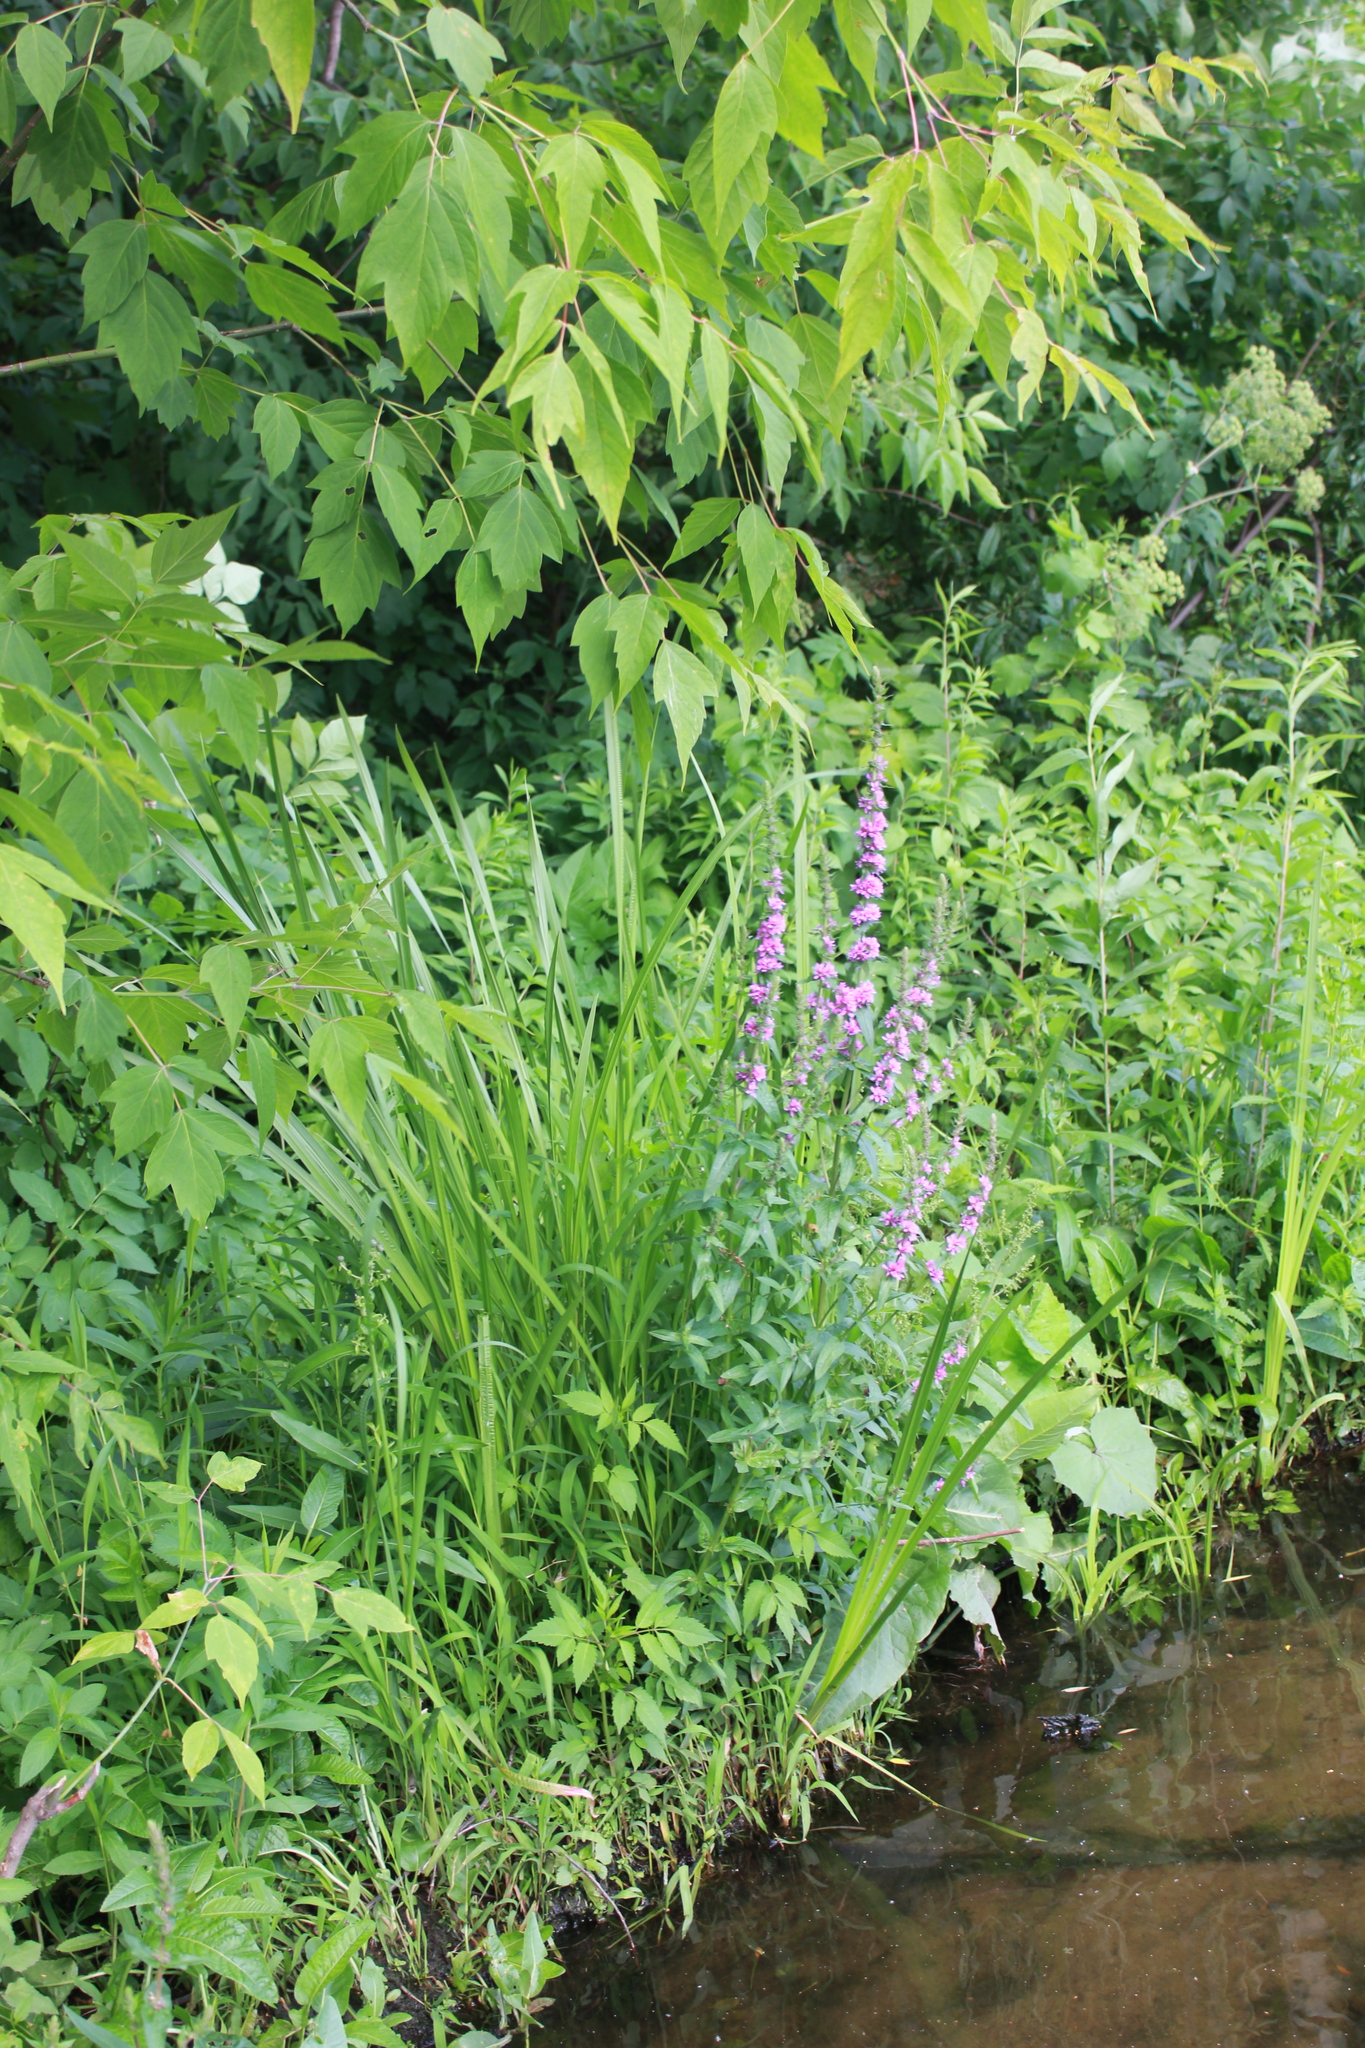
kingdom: Plantae
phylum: Tracheophyta
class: Magnoliopsida
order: Myrtales
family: Lythraceae
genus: Lythrum
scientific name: Lythrum salicaria
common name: Purple loosestrife
